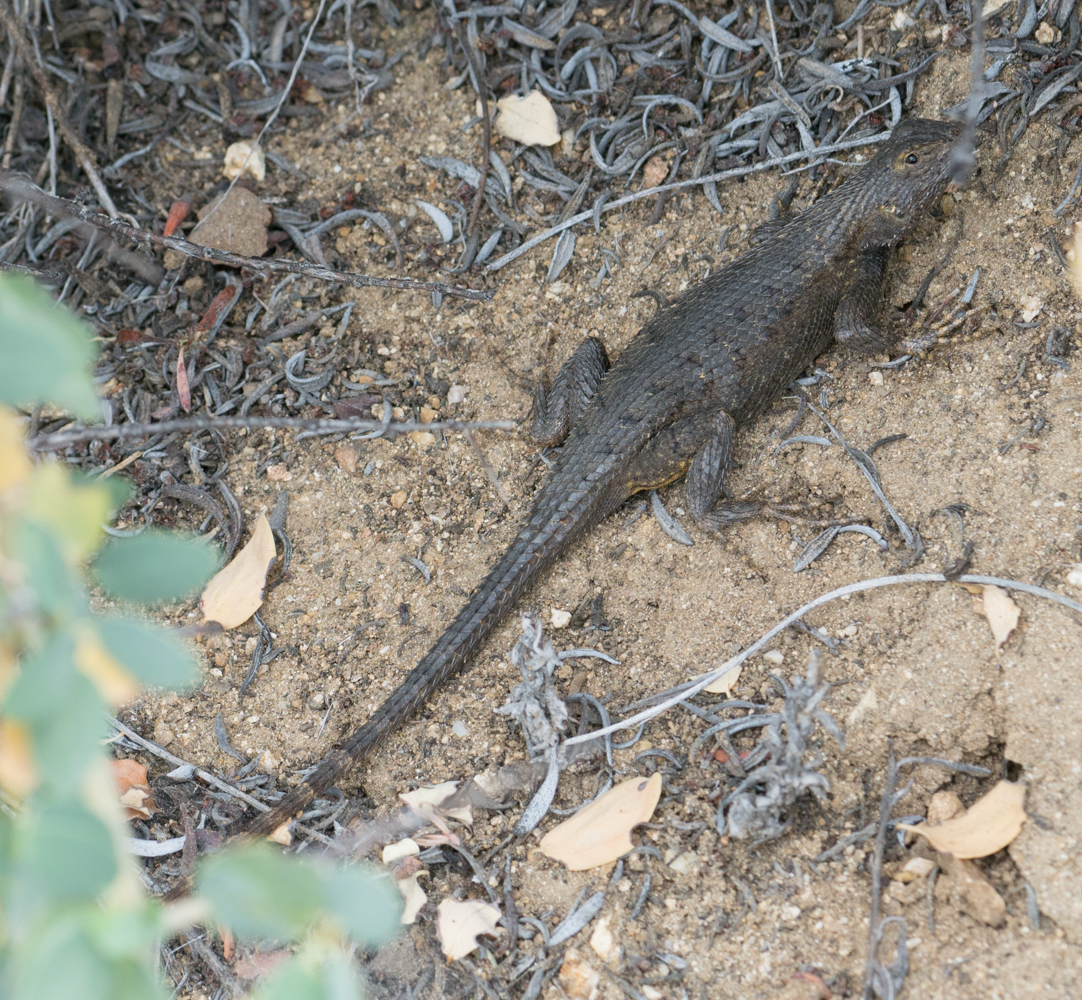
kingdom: Animalia
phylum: Chordata
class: Squamata
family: Phrynosomatidae
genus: Sceloporus
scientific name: Sceloporus occidentalis
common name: Western fence lizard
